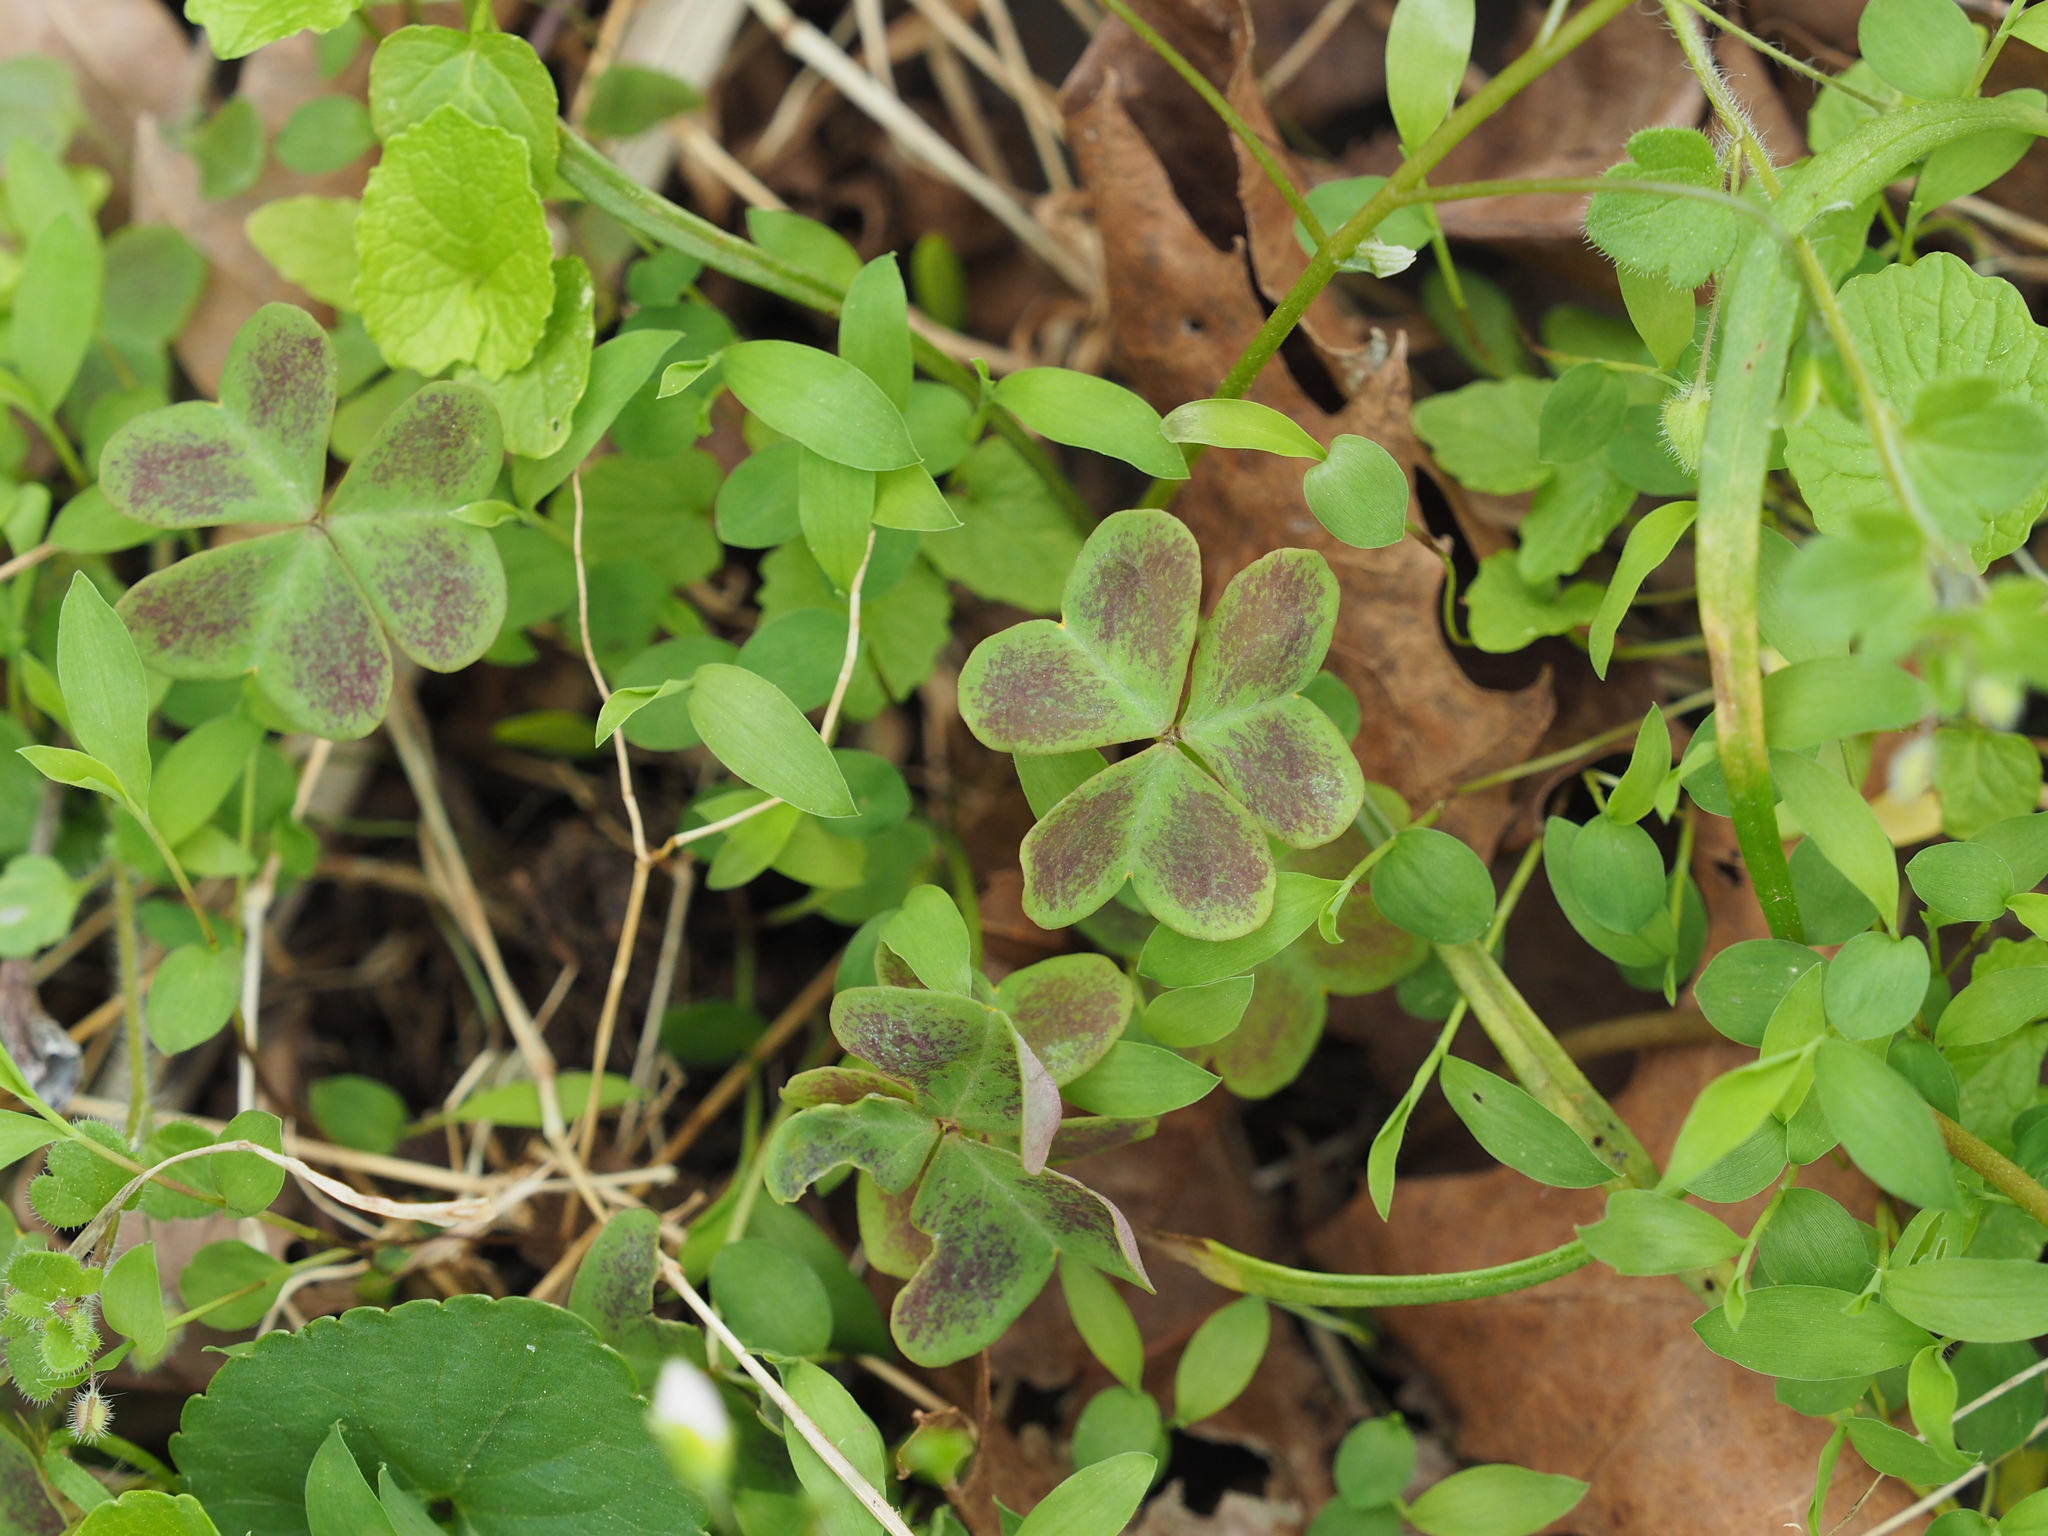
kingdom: Plantae
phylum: Tracheophyta
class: Magnoliopsida
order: Oxalidales
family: Oxalidaceae
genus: Oxalis
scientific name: Oxalis violacea
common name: Violet wood-sorrel
